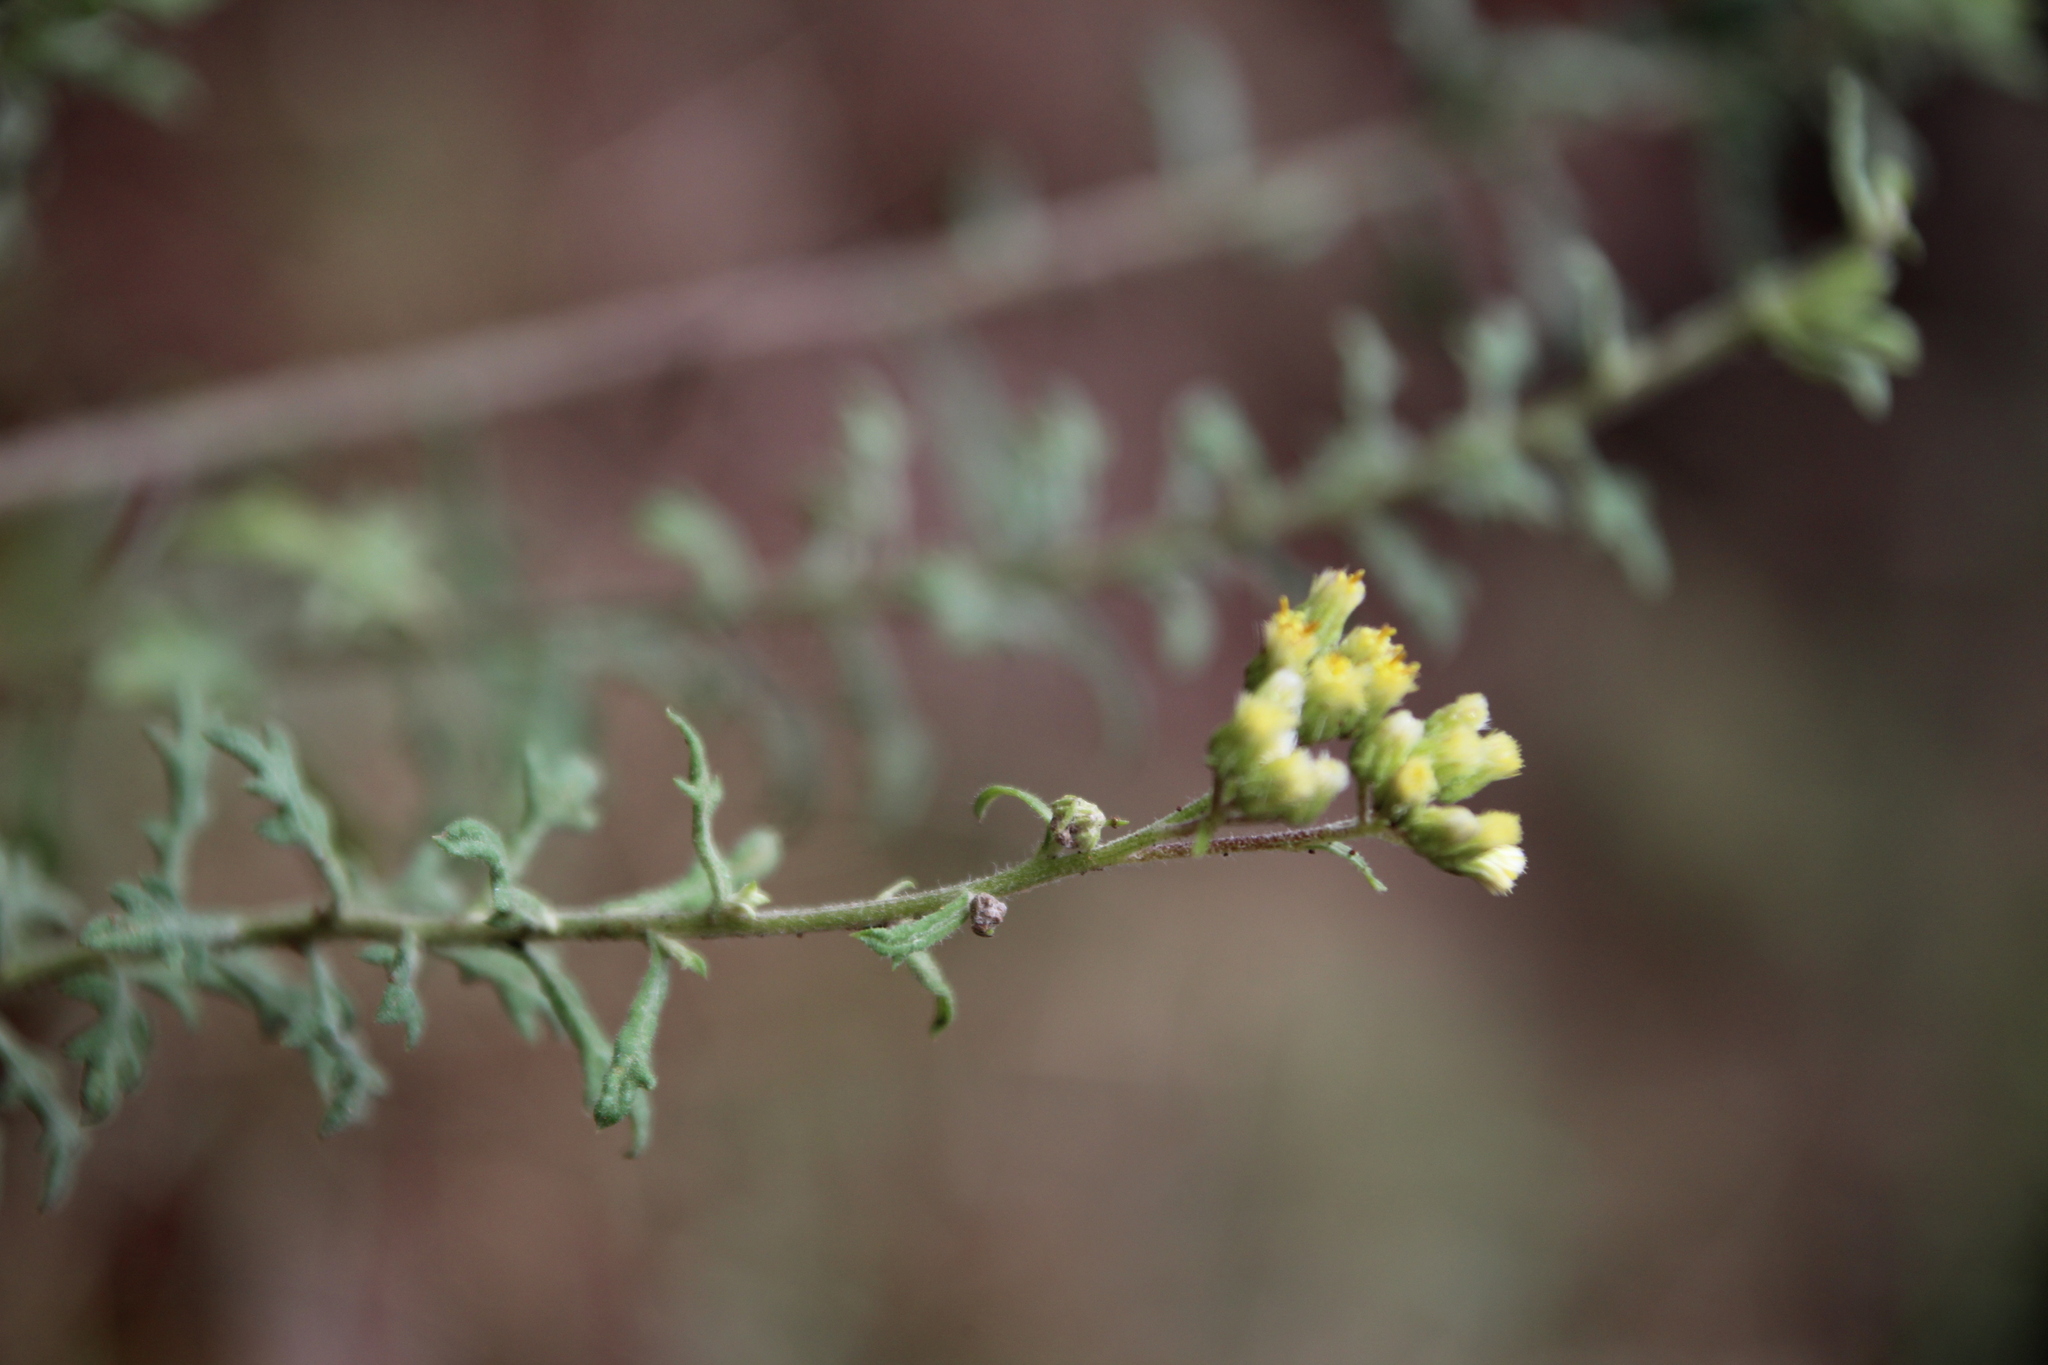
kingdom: Plantae
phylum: Tracheophyta
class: Magnoliopsida
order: Asterales
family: Asteraceae
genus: Conyza
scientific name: Conyza schimperi
